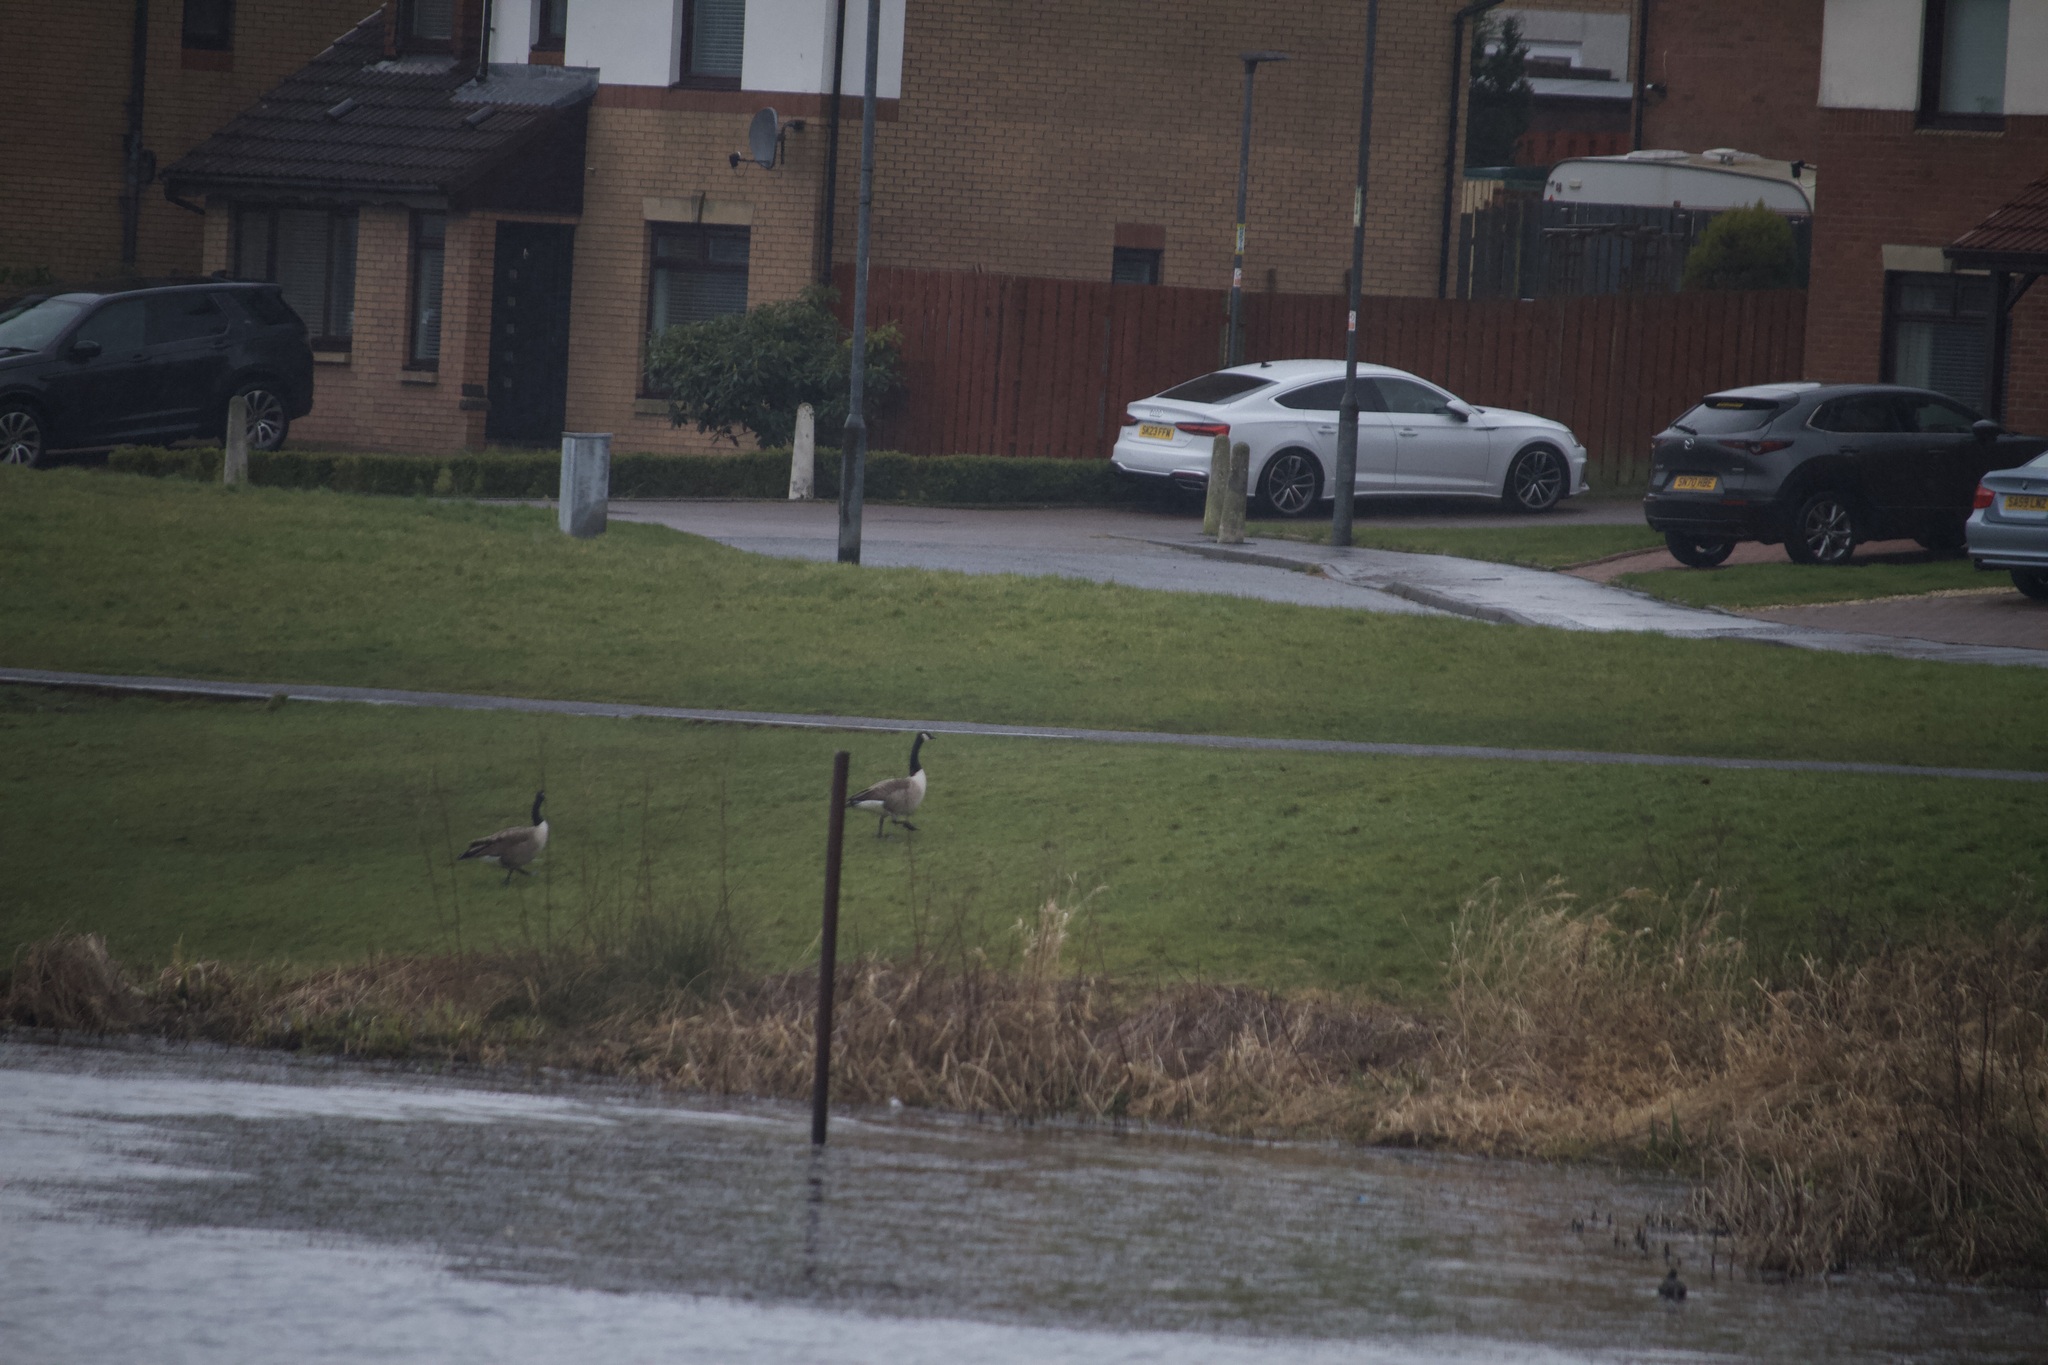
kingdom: Animalia
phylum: Chordata
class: Aves
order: Anseriformes
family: Anatidae
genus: Branta
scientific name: Branta canadensis
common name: Canada goose
